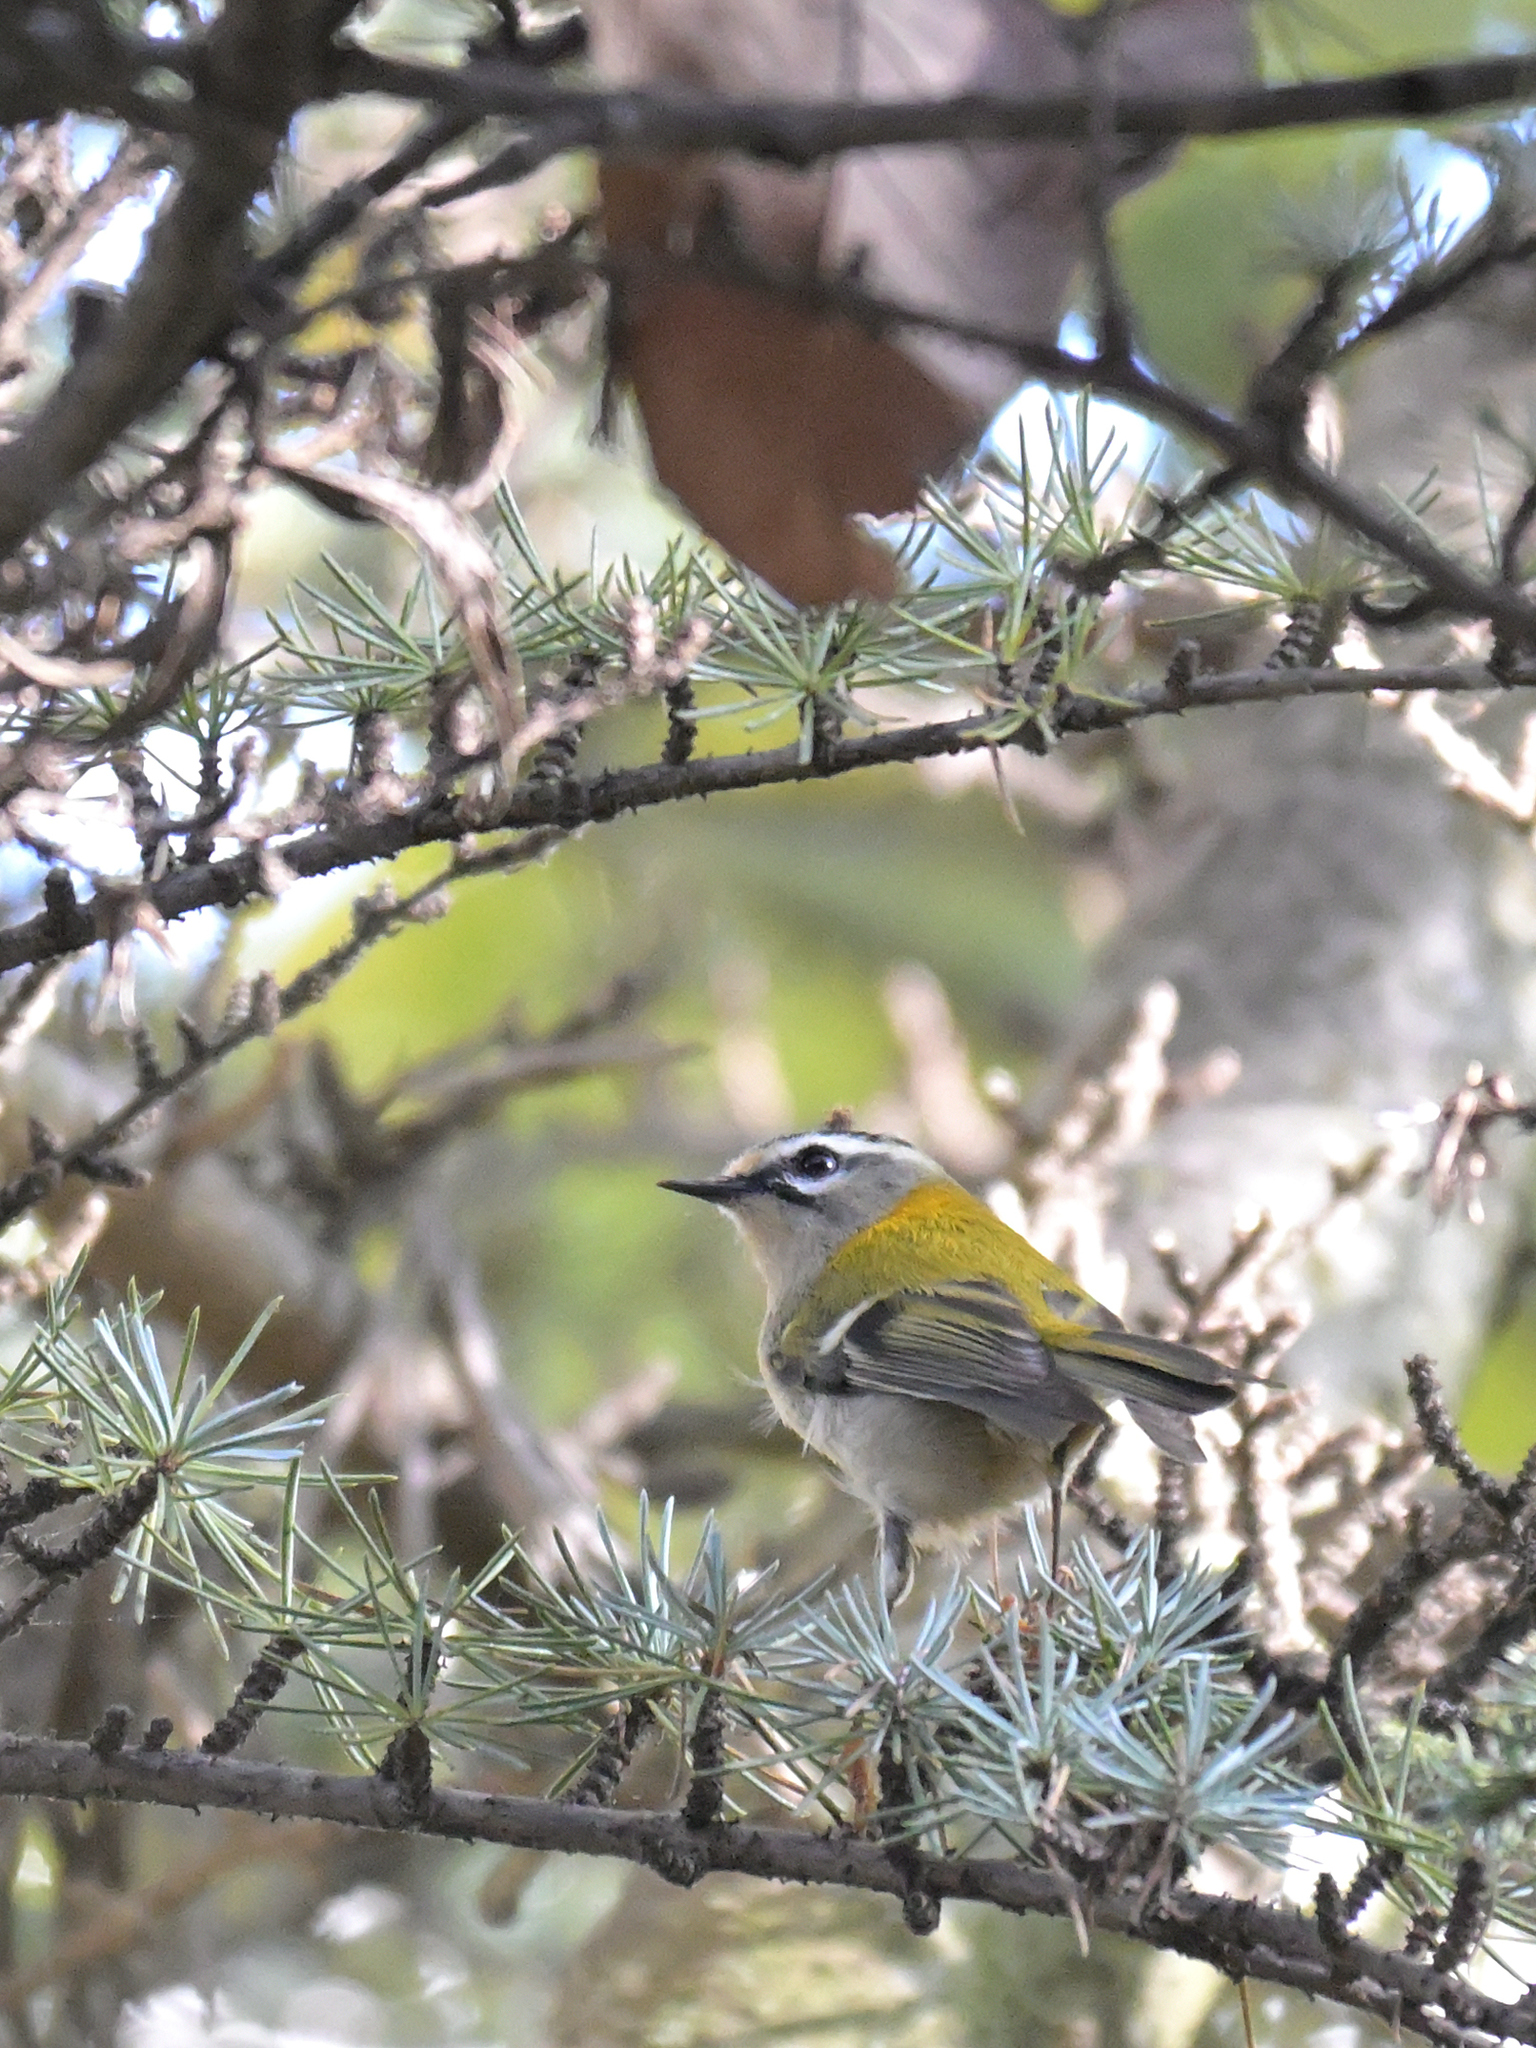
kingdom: Animalia
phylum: Chordata
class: Aves
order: Passeriformes
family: Regulidae
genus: Regulus
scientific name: Regulus ignicapilla
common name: Firecrest
